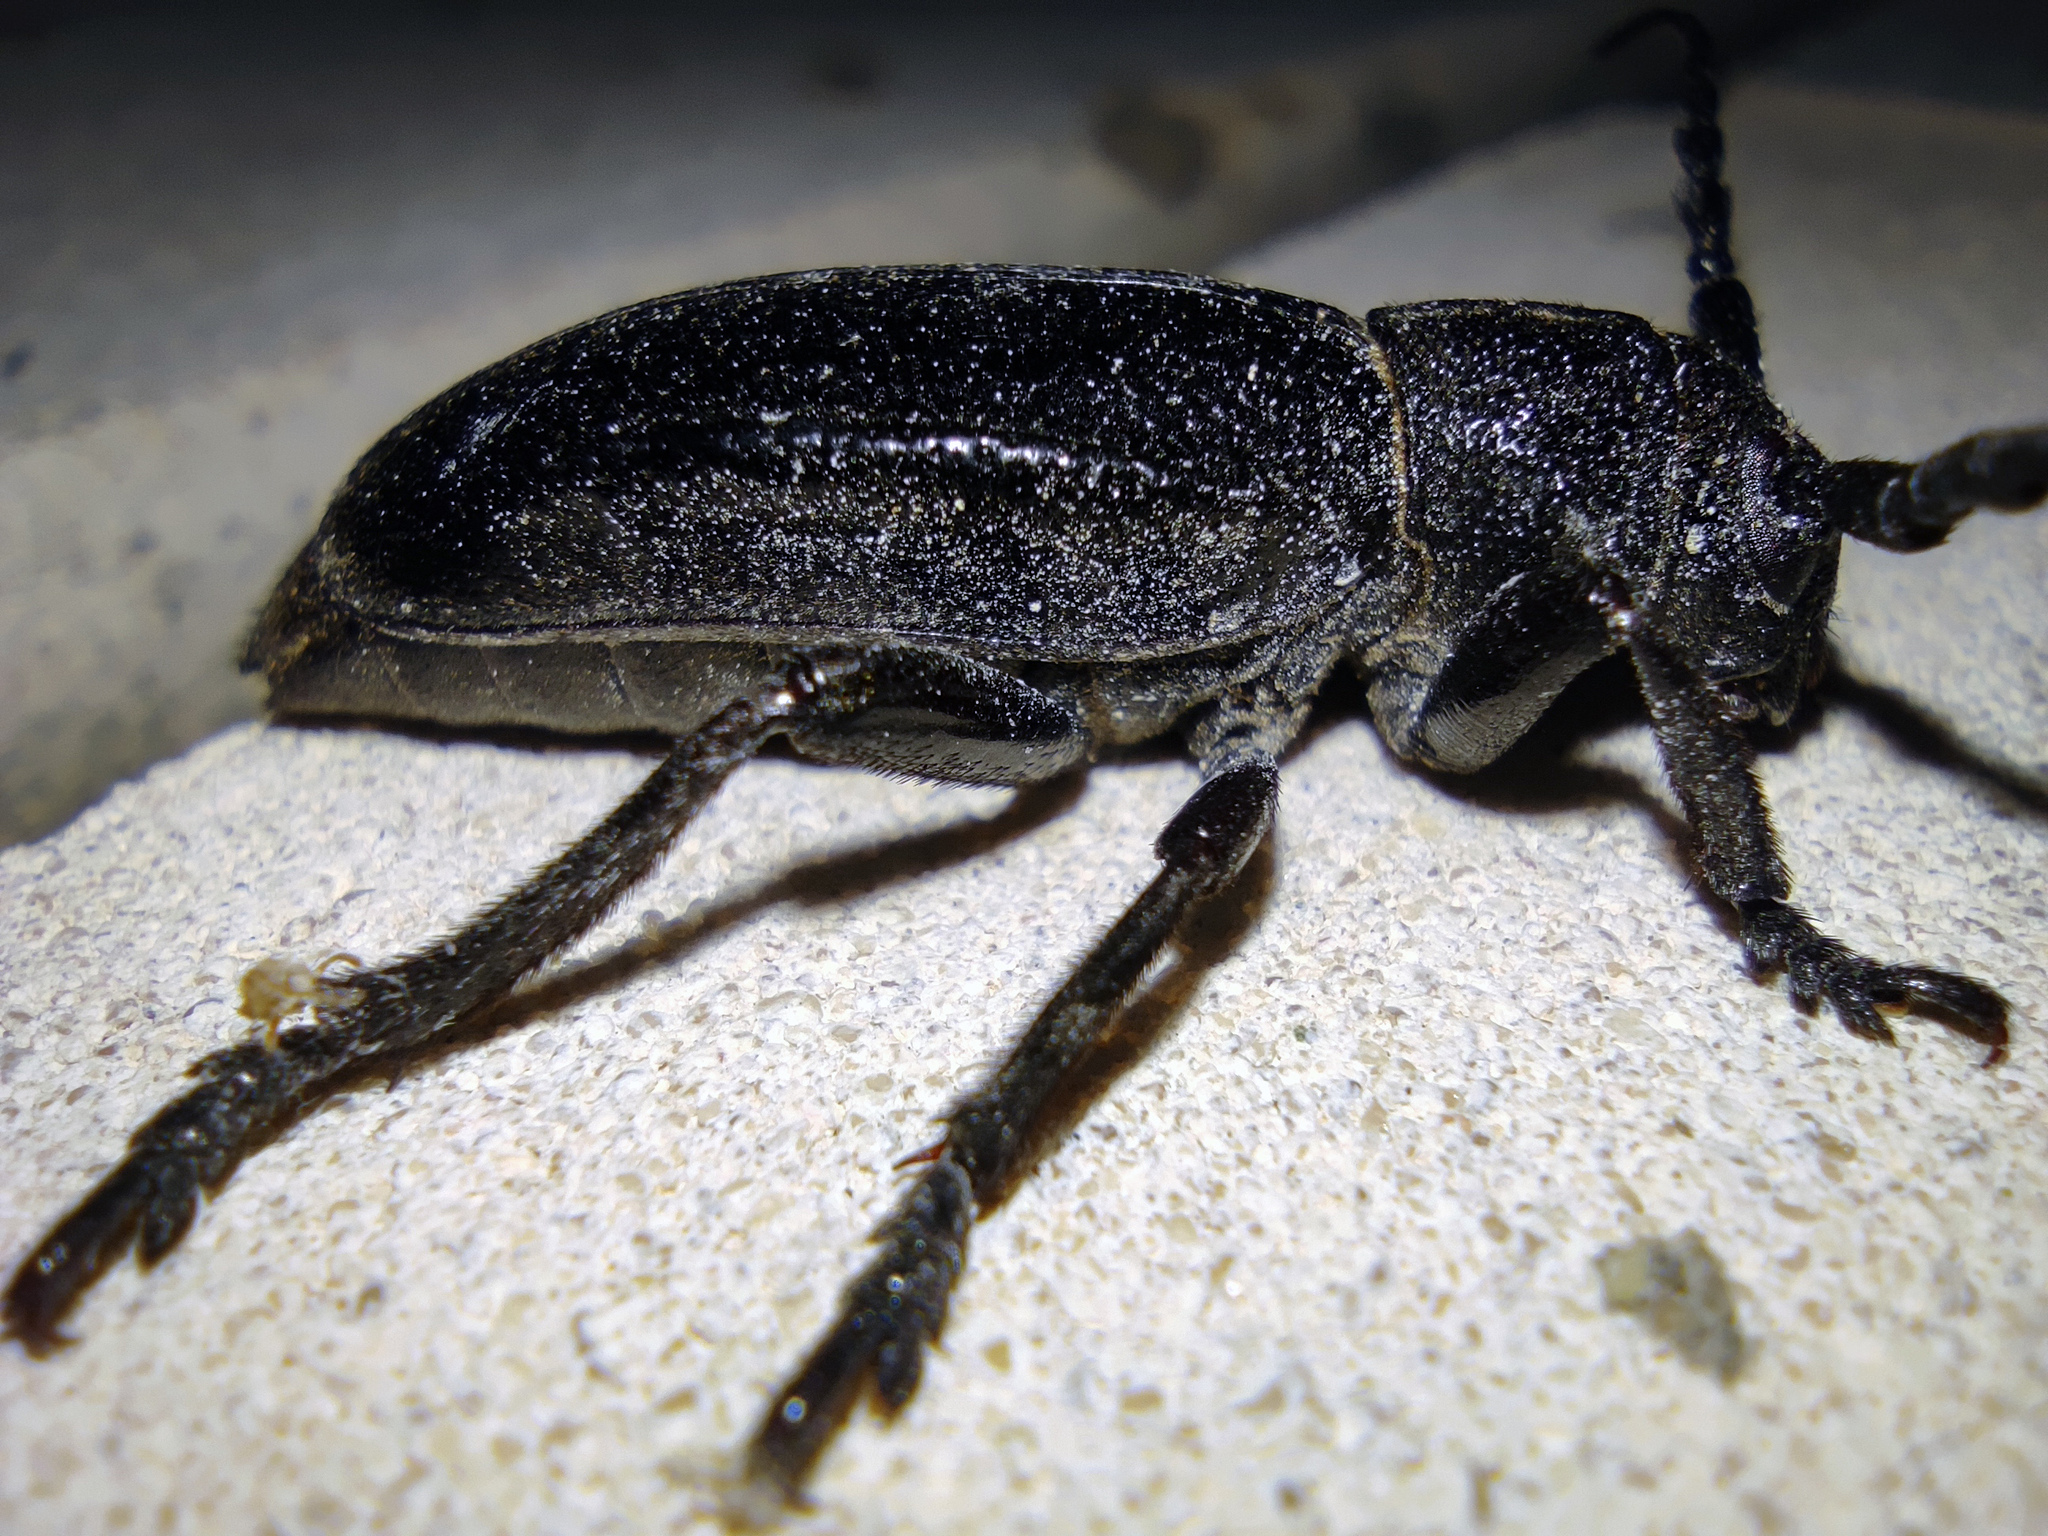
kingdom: Animalia
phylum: Arthropoda
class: Insecta
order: Coleoptera
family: Cerambycidae
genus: Dorcadion
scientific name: Dorcadion carinatum
